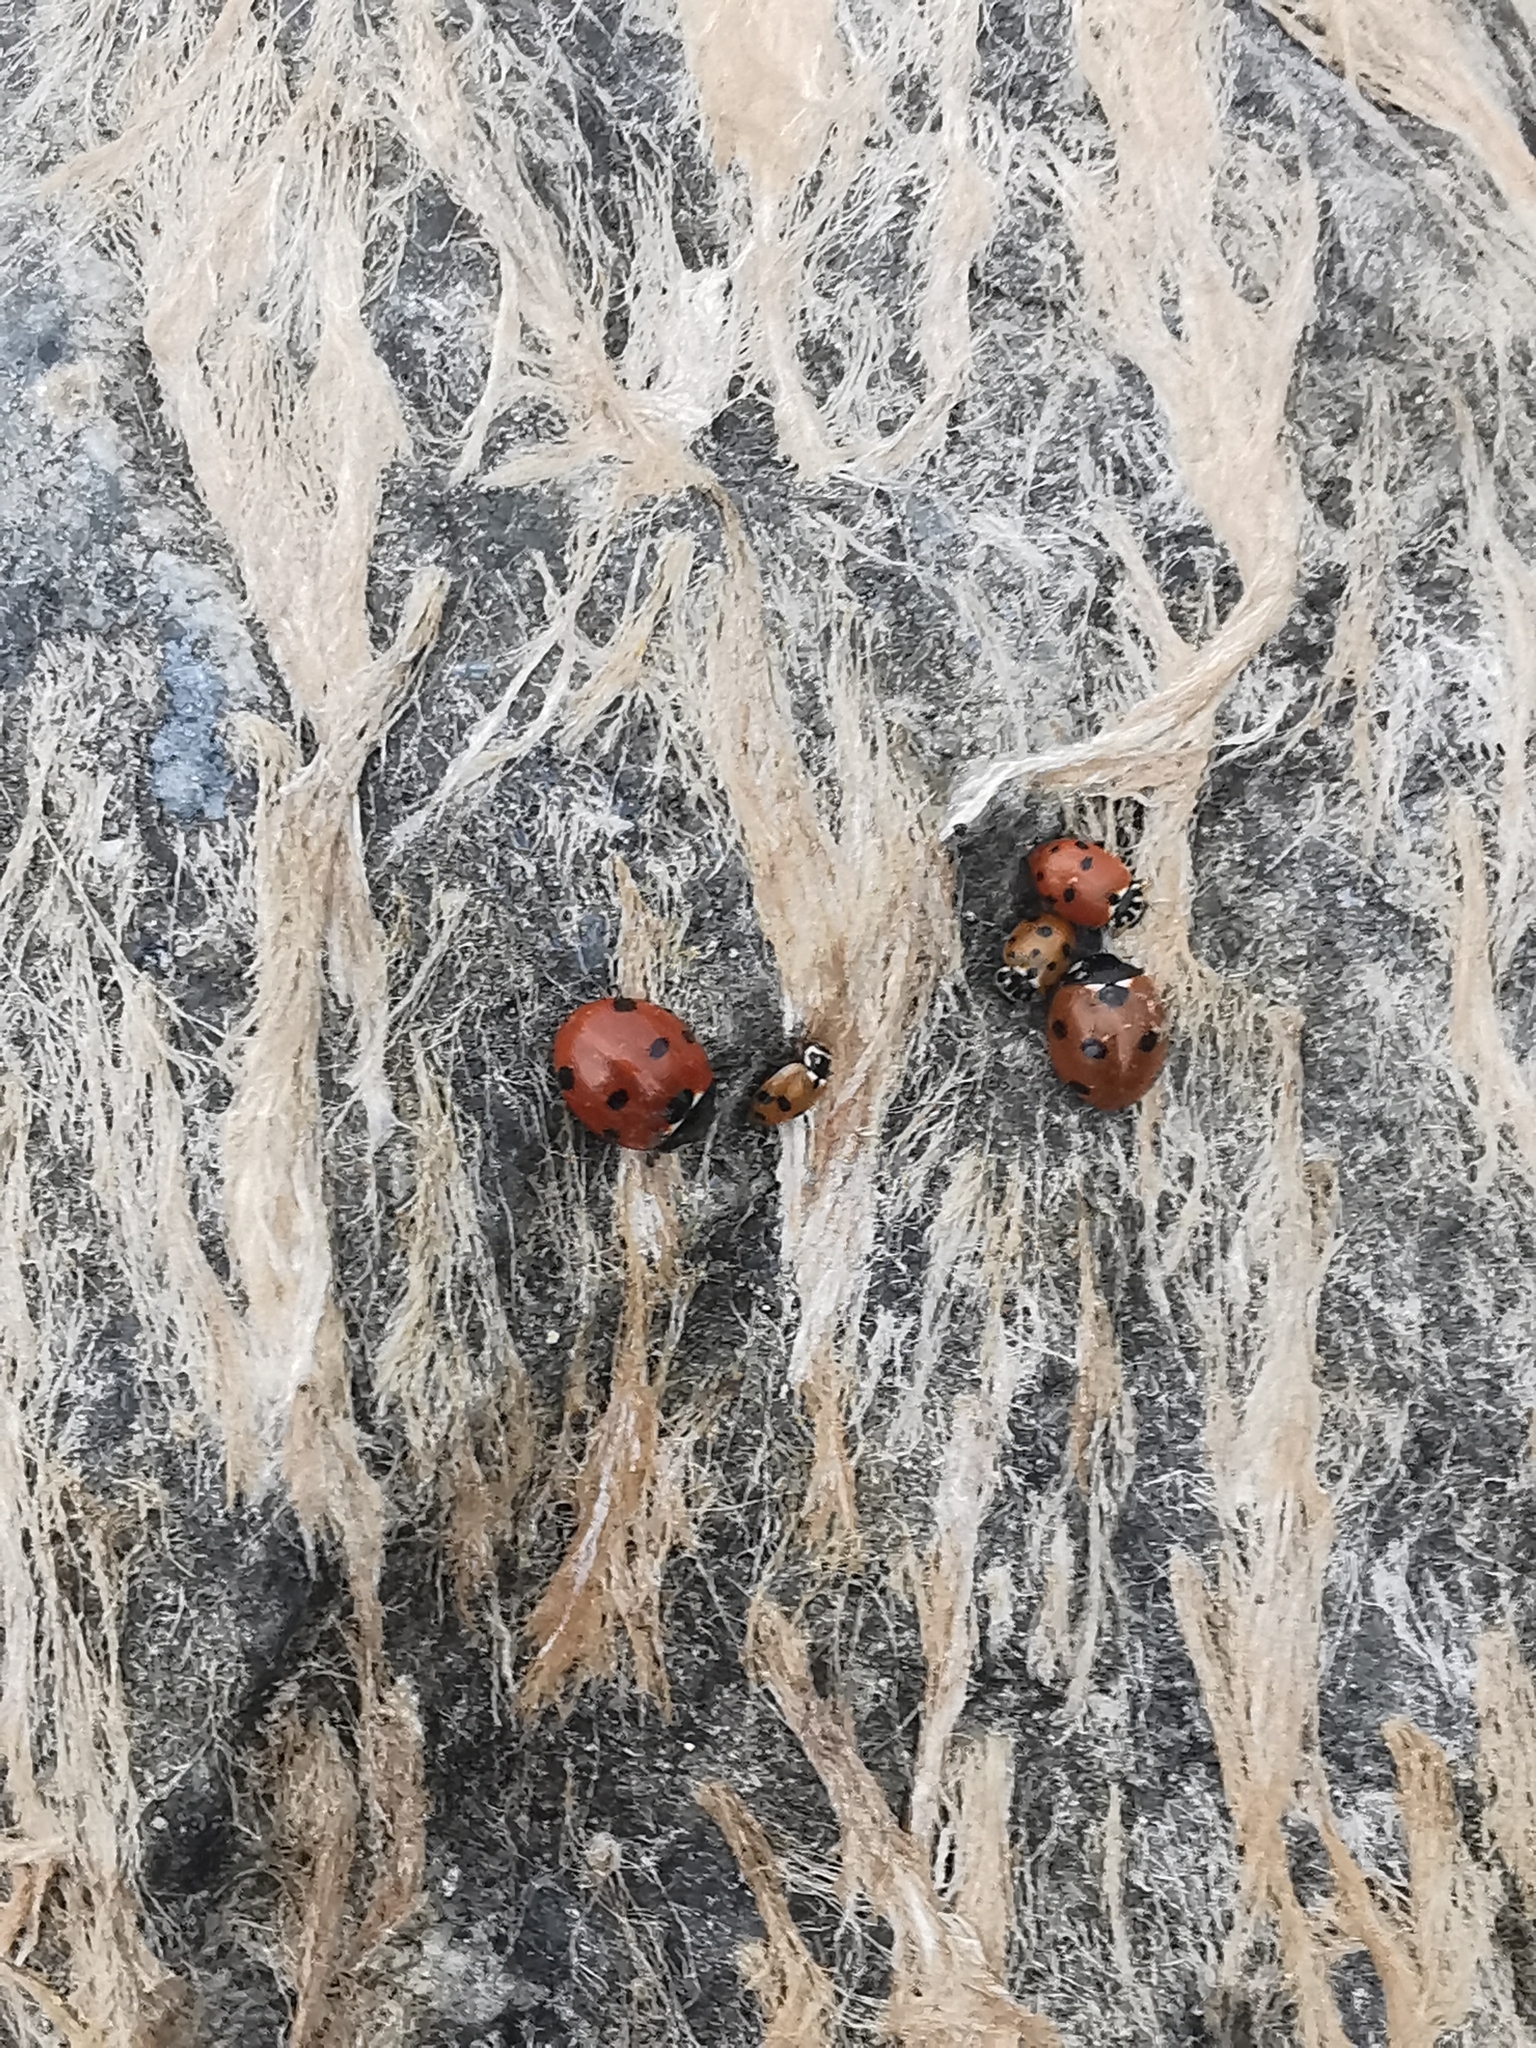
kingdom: Animalia
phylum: Arthropoda
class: Insecta
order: Coleoptera
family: Coccinellidae
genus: Hippodamia
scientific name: Hippodamia variegata
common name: Ladybird beetle
